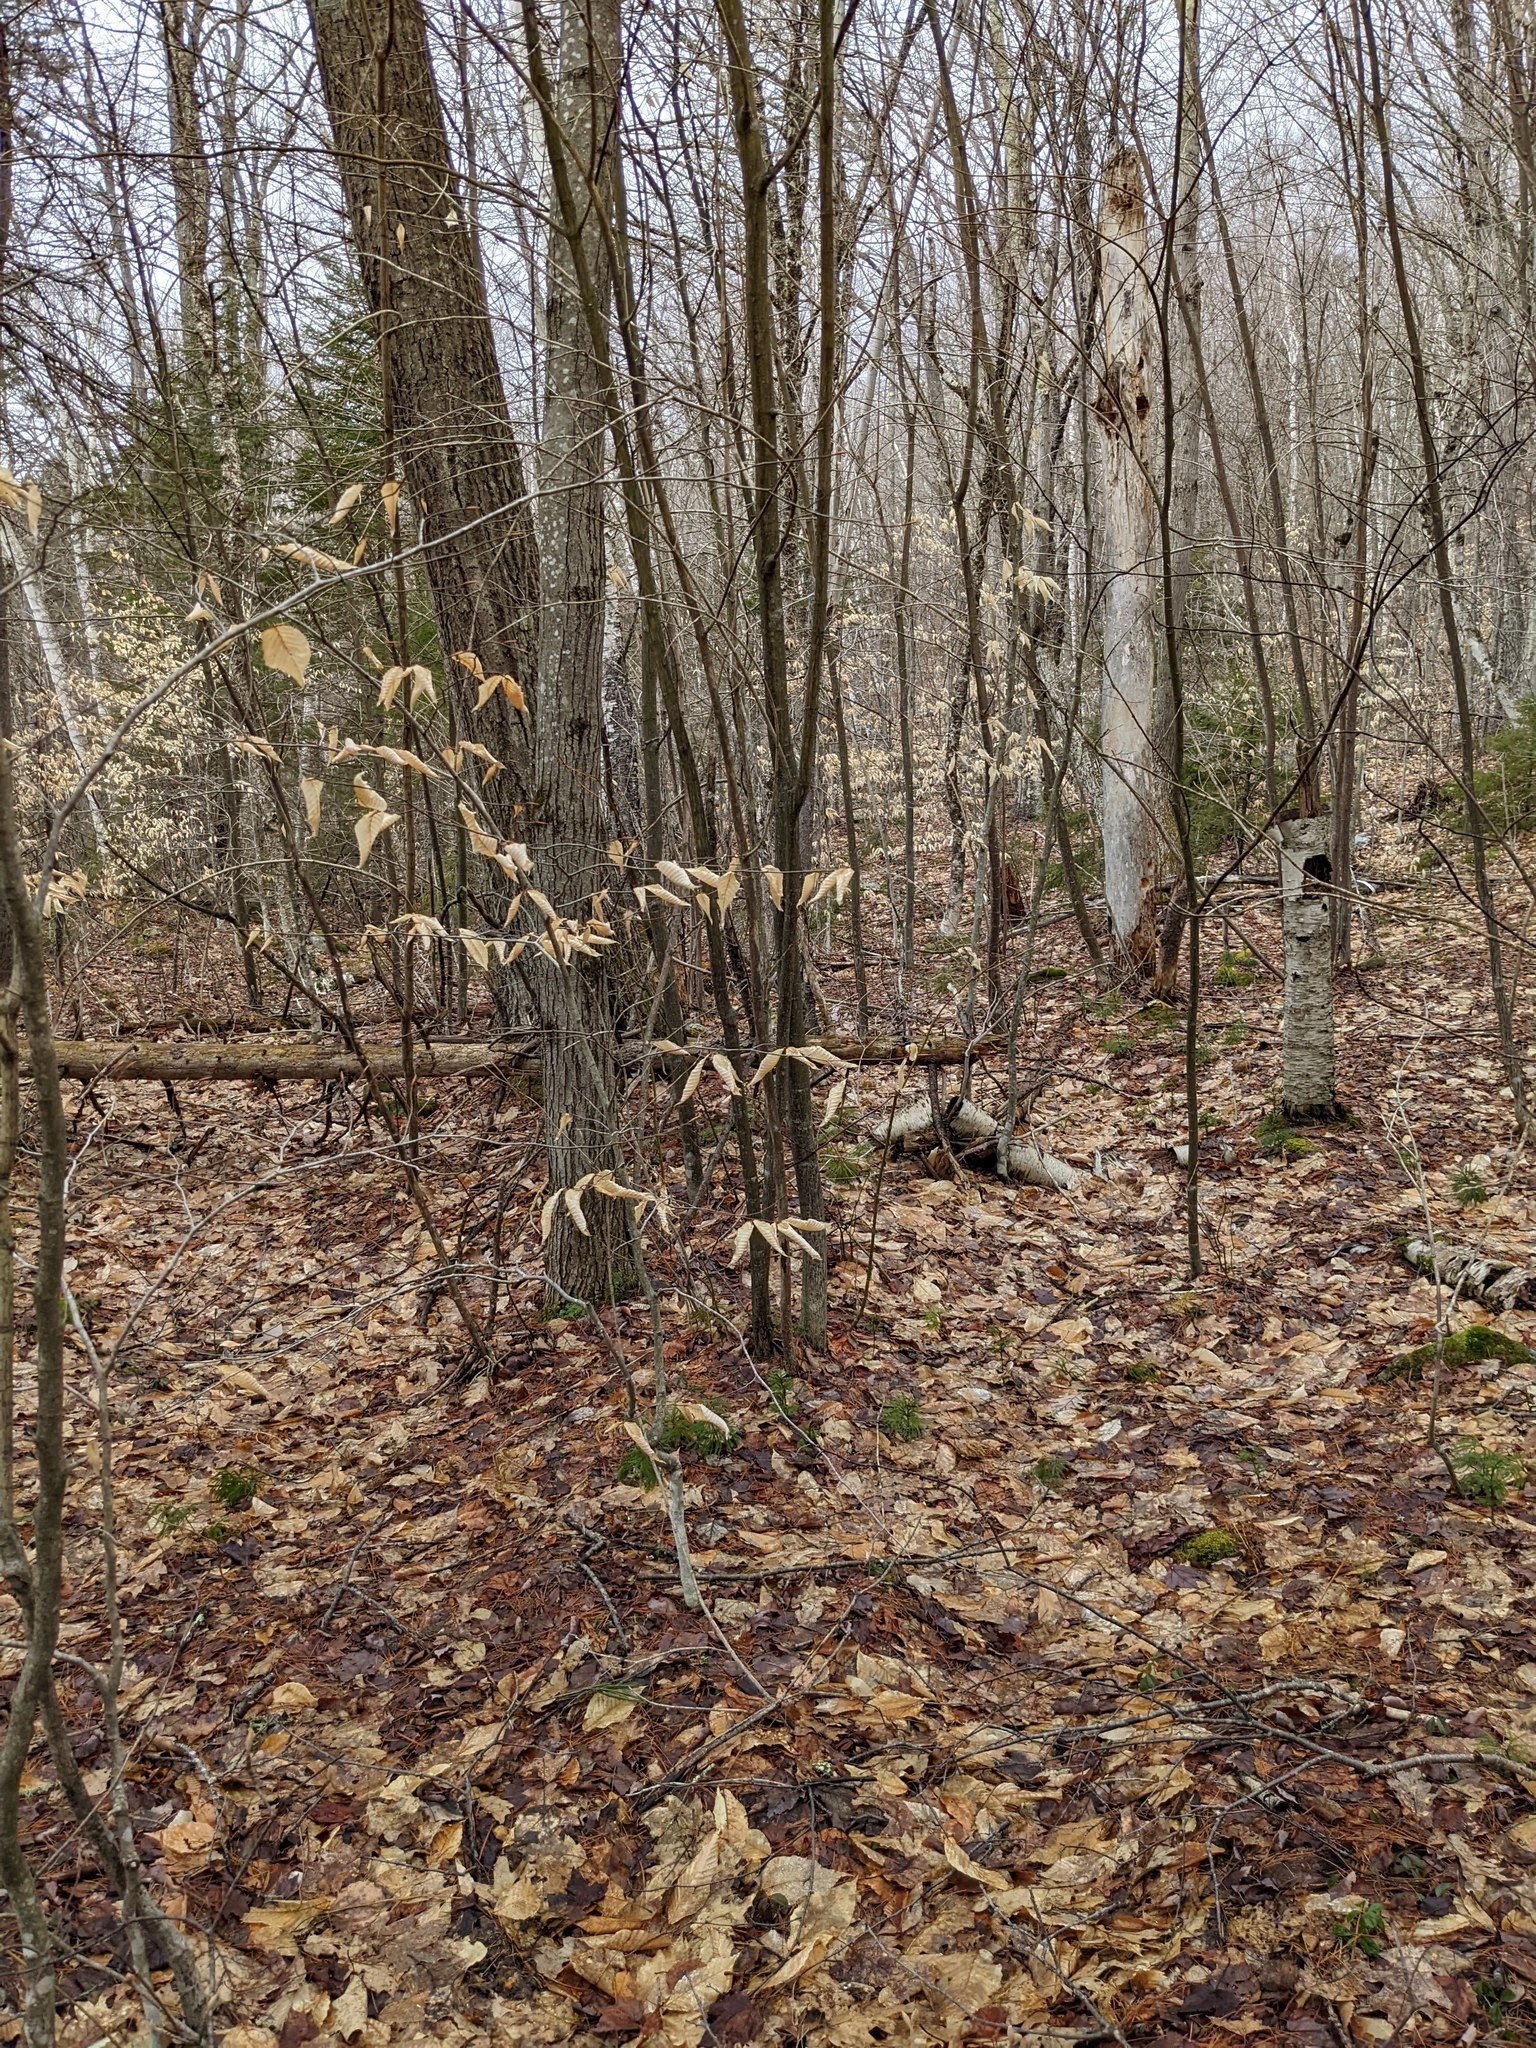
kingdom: Plantae
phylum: Tracheophyta
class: Magnoliopsida
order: Fagales
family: Fagaceae
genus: Fagus
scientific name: Fagus grandifolia
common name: American beech
